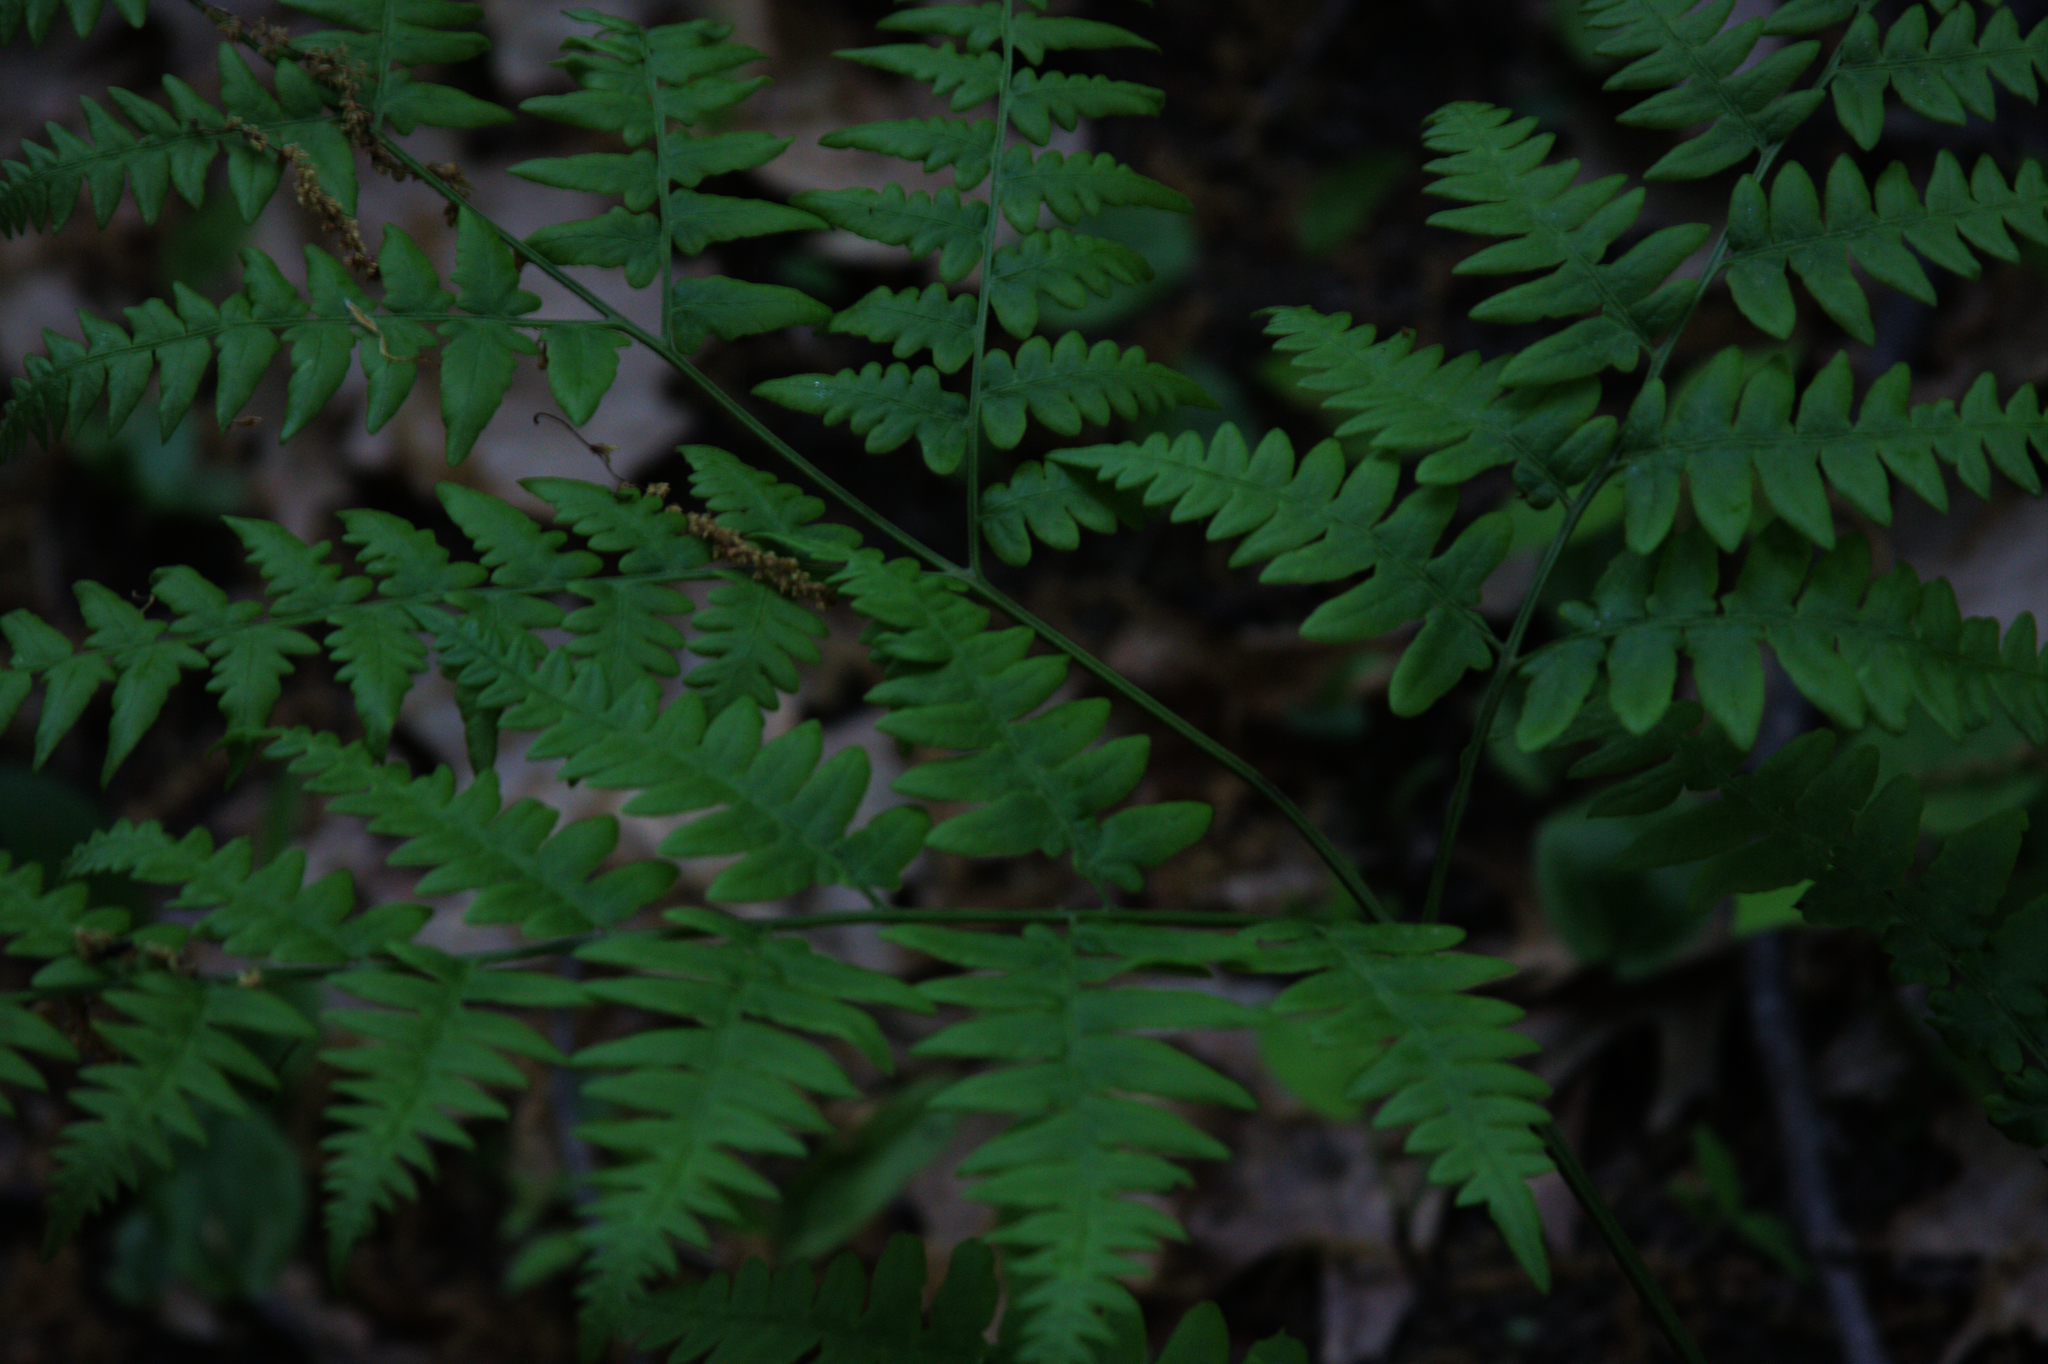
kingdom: Plantae
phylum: Tracheophyta
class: Polypodiopsida
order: Polypodiales
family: Dennstaedtiaceae
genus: Pteridium
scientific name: Pteridium aquilinum
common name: Bracken
